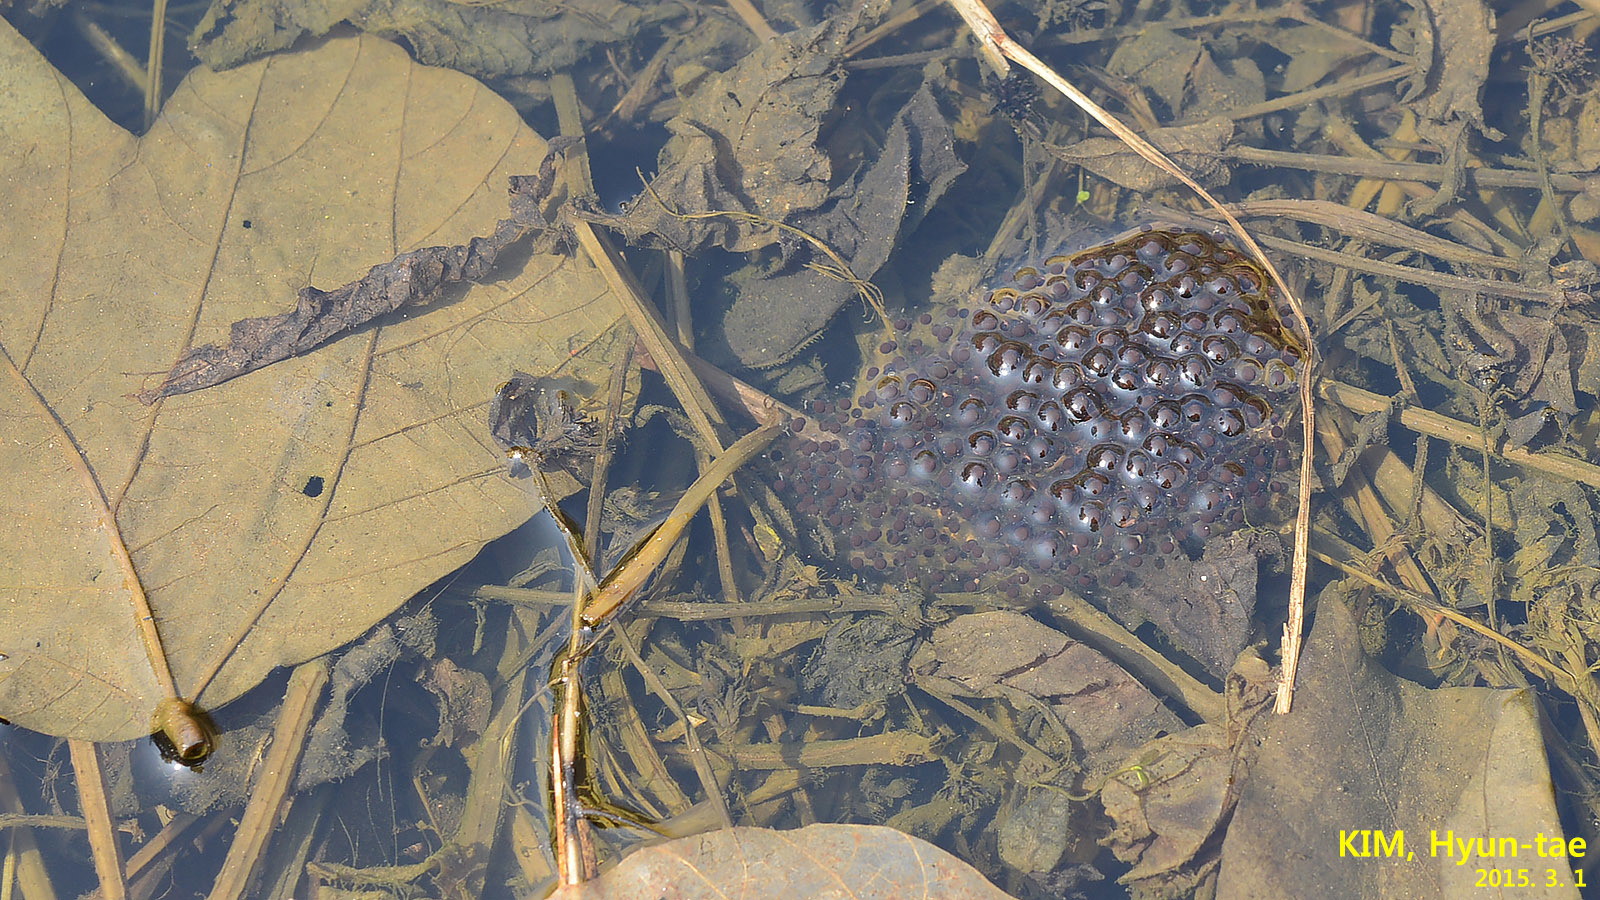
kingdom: Animalia
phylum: Chordata
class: Amphibia
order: Anura
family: Ranidae
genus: Rana
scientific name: Rana coreana
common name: Korean brown frog
